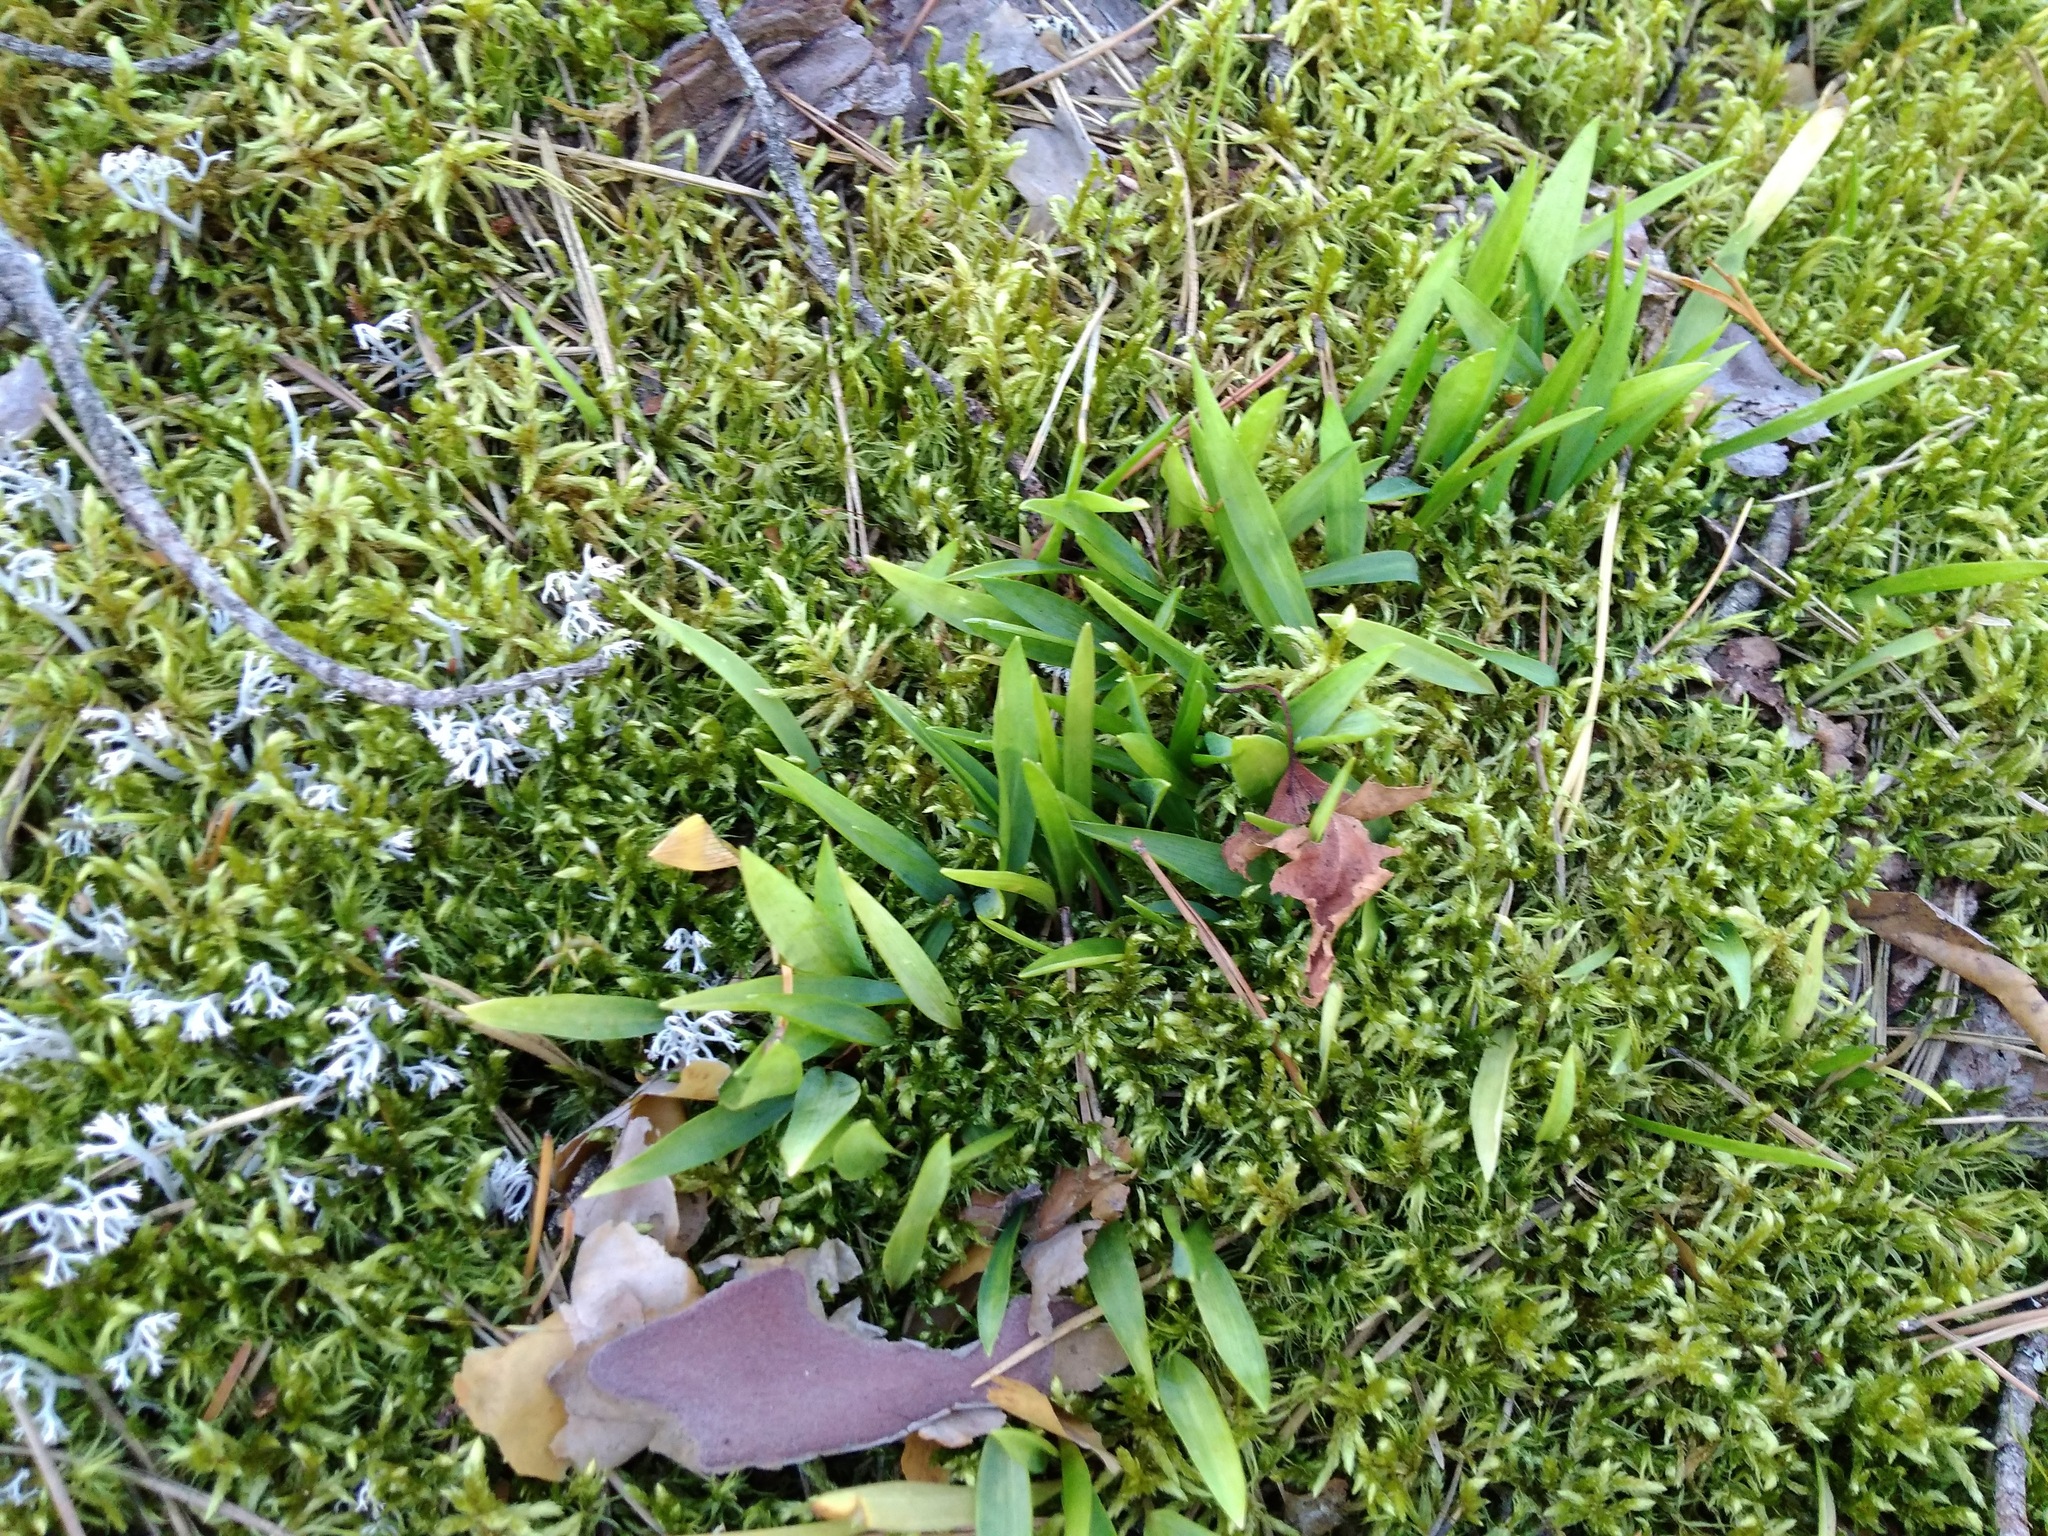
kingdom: Plantae
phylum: Tracheophyta
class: Liliopsida
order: Poales
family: Juncaceae
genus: Luzula
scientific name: Luzula pilosa
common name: Hairy wood-rush
